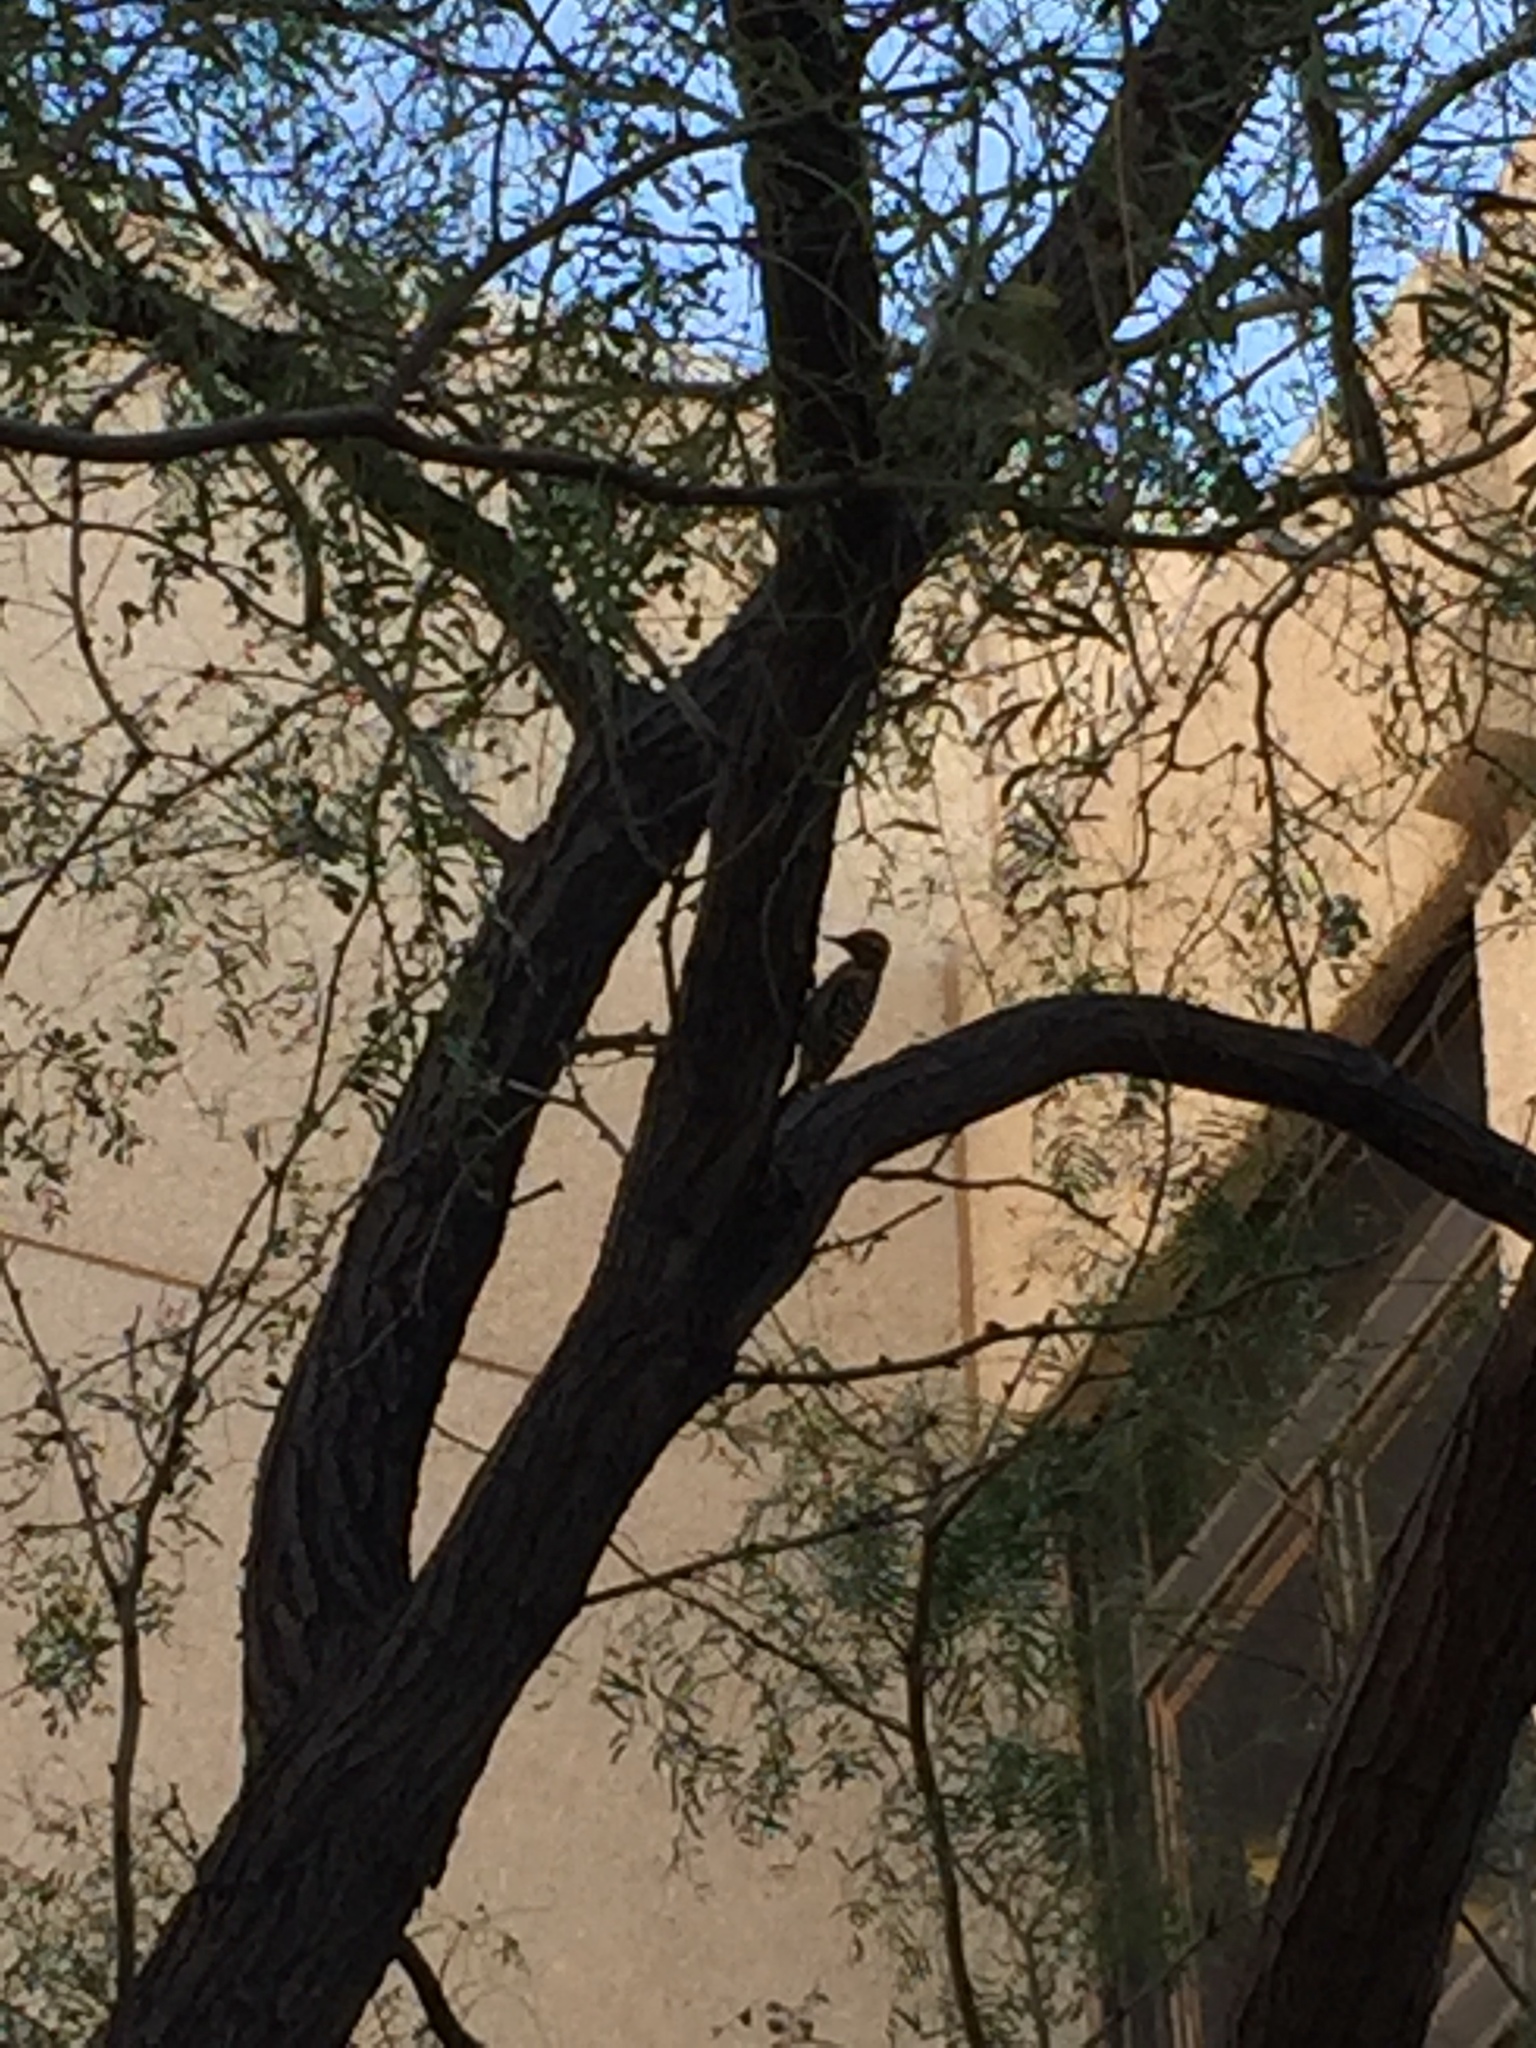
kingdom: Animalia
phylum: Chordata
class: Aves
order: Piciformes
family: Picidae
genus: Dryobates
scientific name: Dryobates scalaris
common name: Ladder-backed woodpecker
